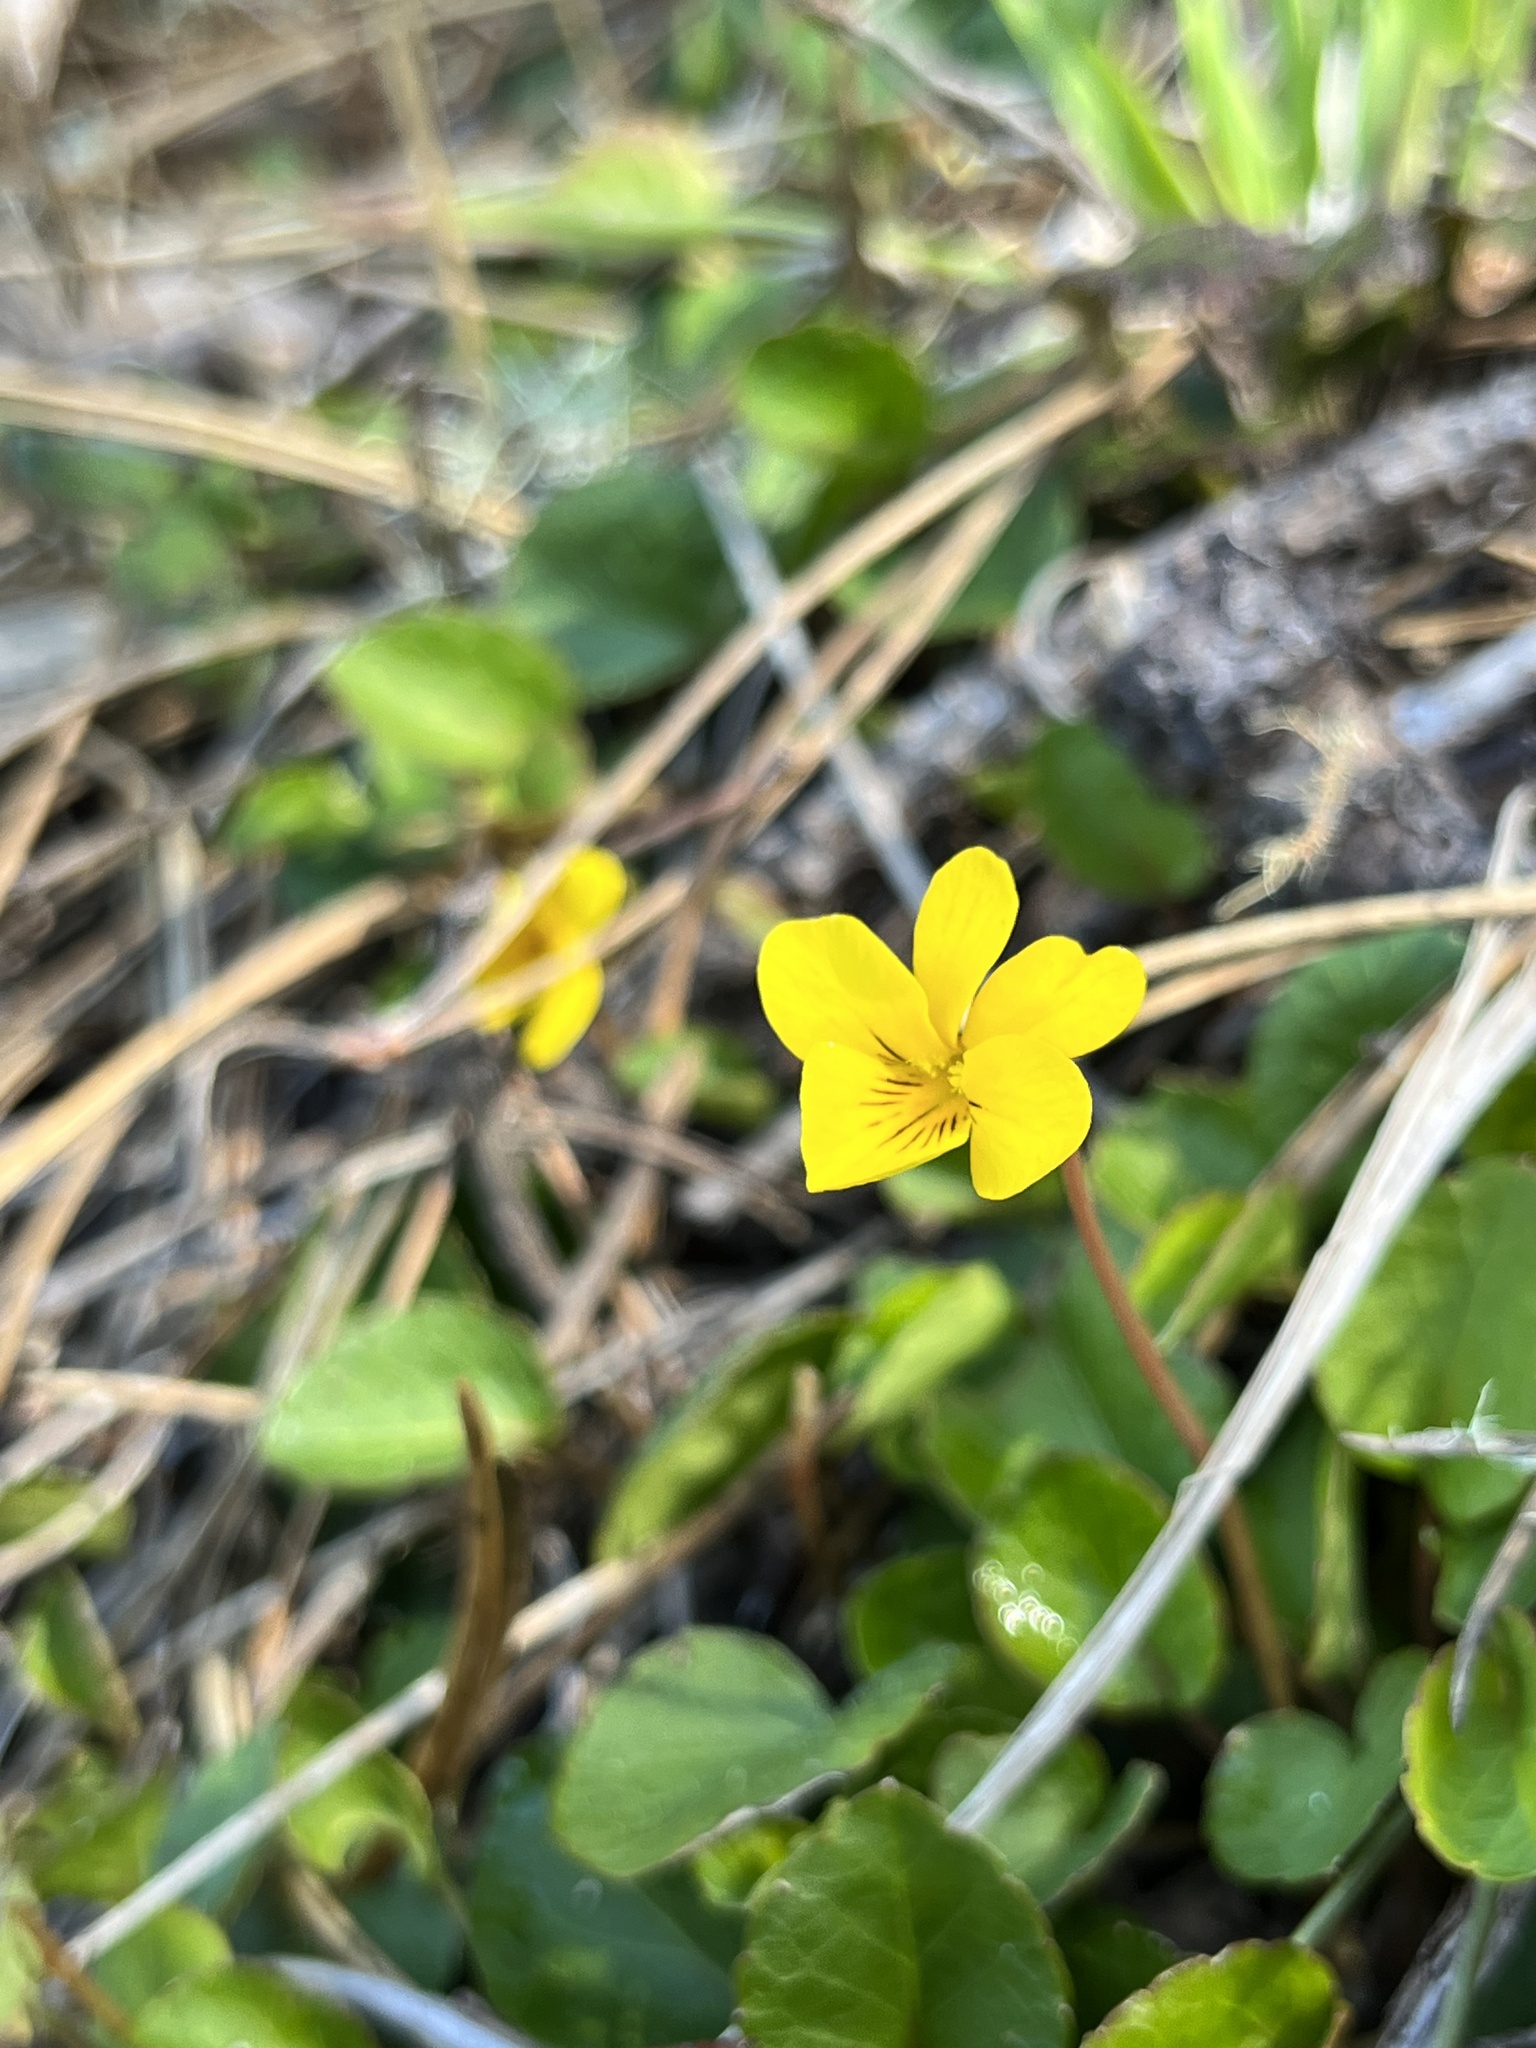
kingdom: Plantae
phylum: Tracheophyta
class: Magnoliopsida
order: Malpighiales
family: Violaceae
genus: Viola
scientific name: Viola sempervirens
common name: Evergreen violet
